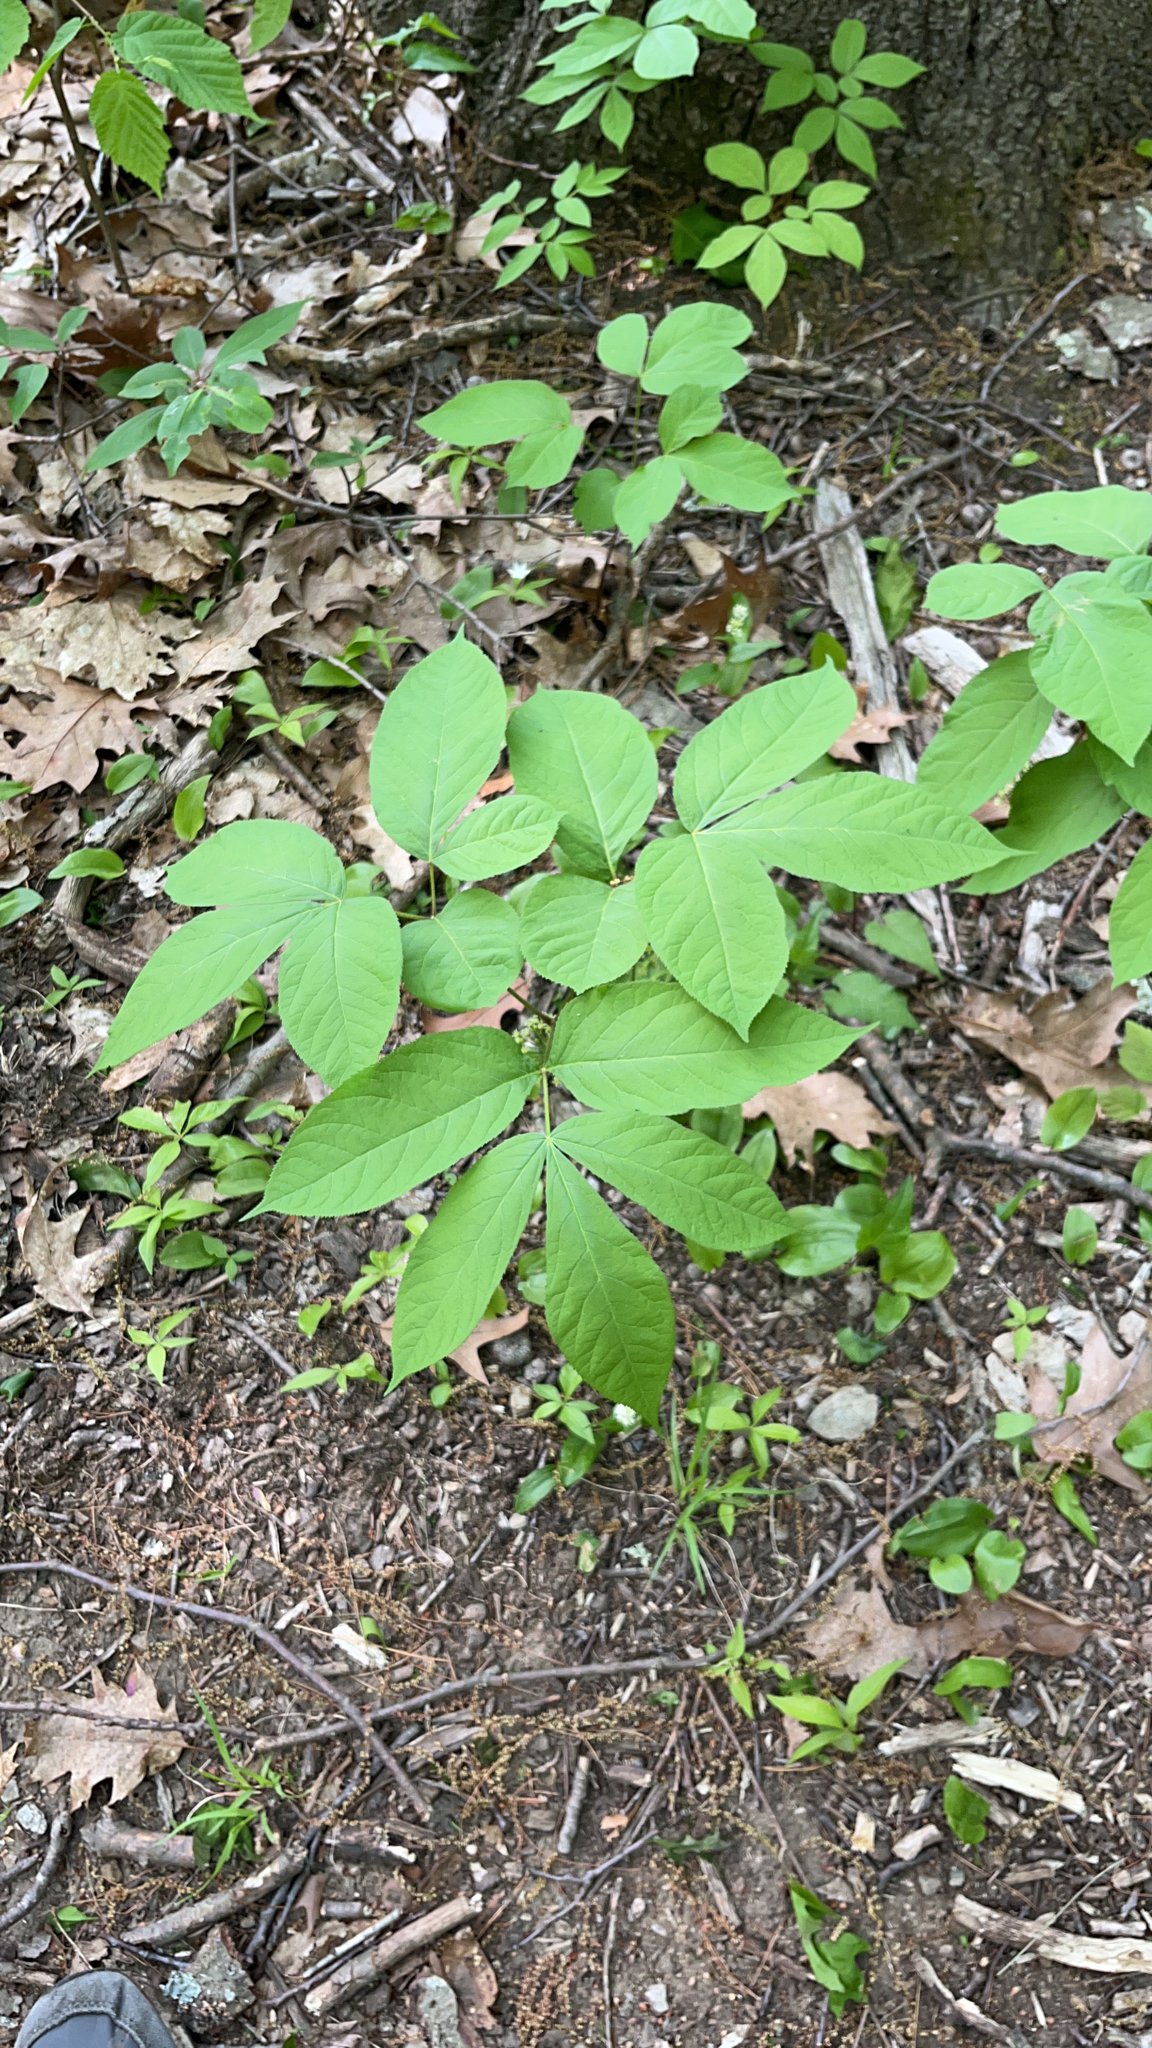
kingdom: Plantae
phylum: Tracheophyta
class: Magnoliopsida
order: Apiales
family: Araliaceae
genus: Aralia
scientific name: Aralia nudicaulis
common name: Wild sarsaparilla
